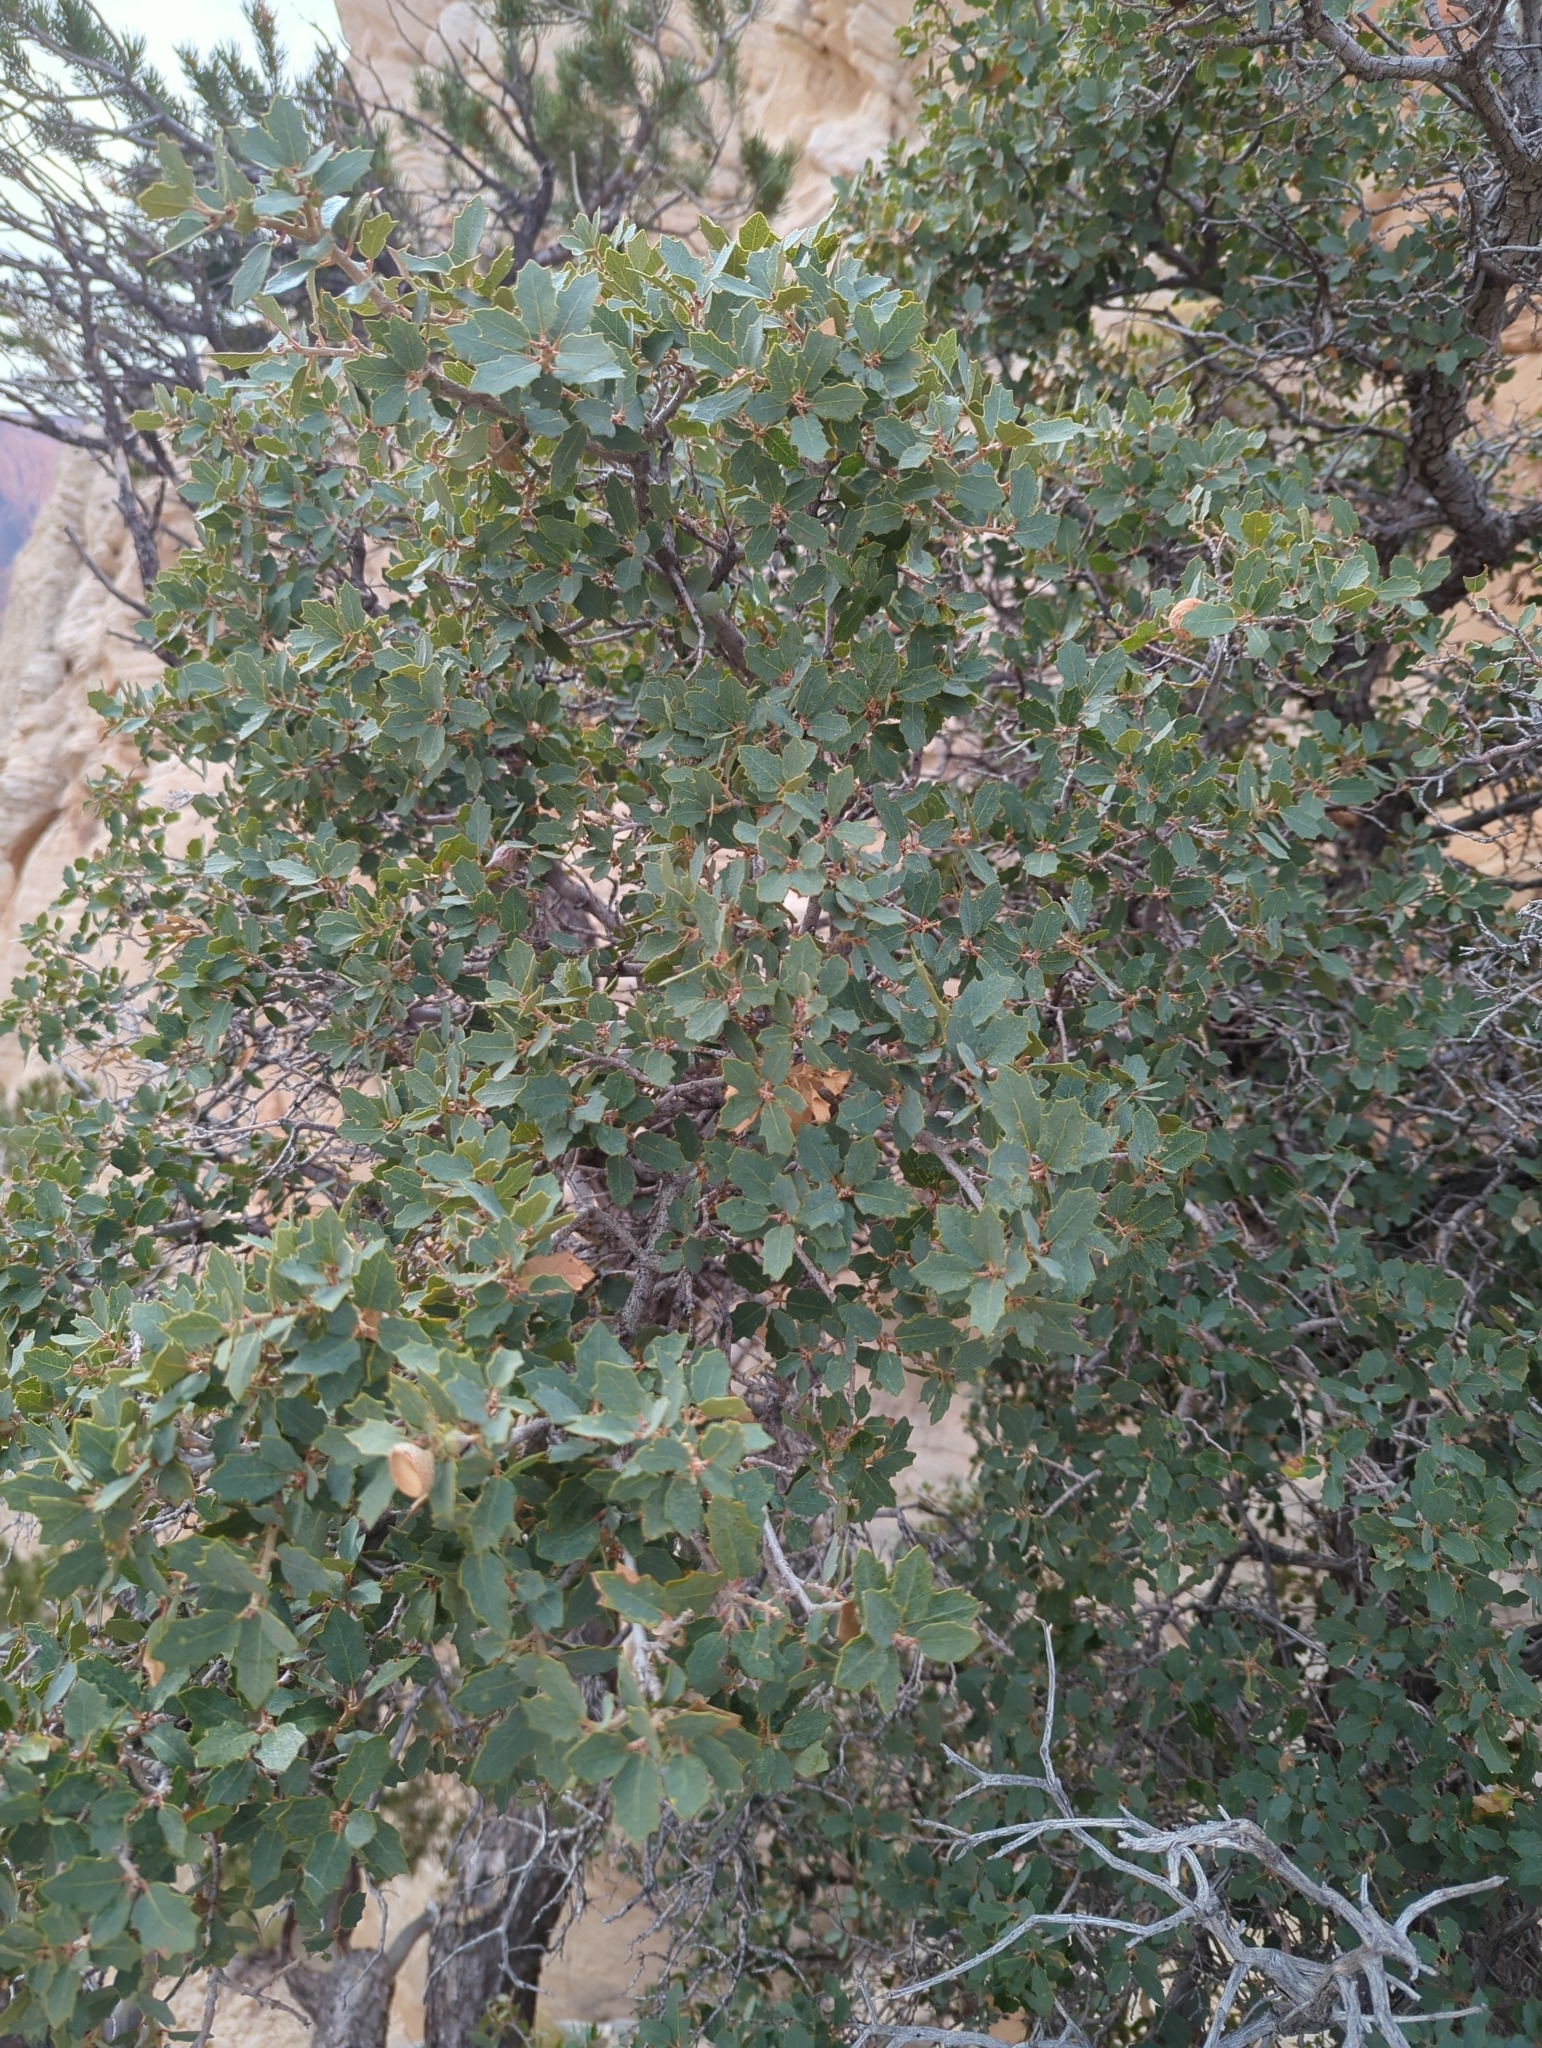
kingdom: Plantae
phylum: Tracheophyta
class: Magnoliopsida
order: Fagales
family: Fagaceae
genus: Quercus
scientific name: Quercus turbinella
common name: Sonoran scrub oak
